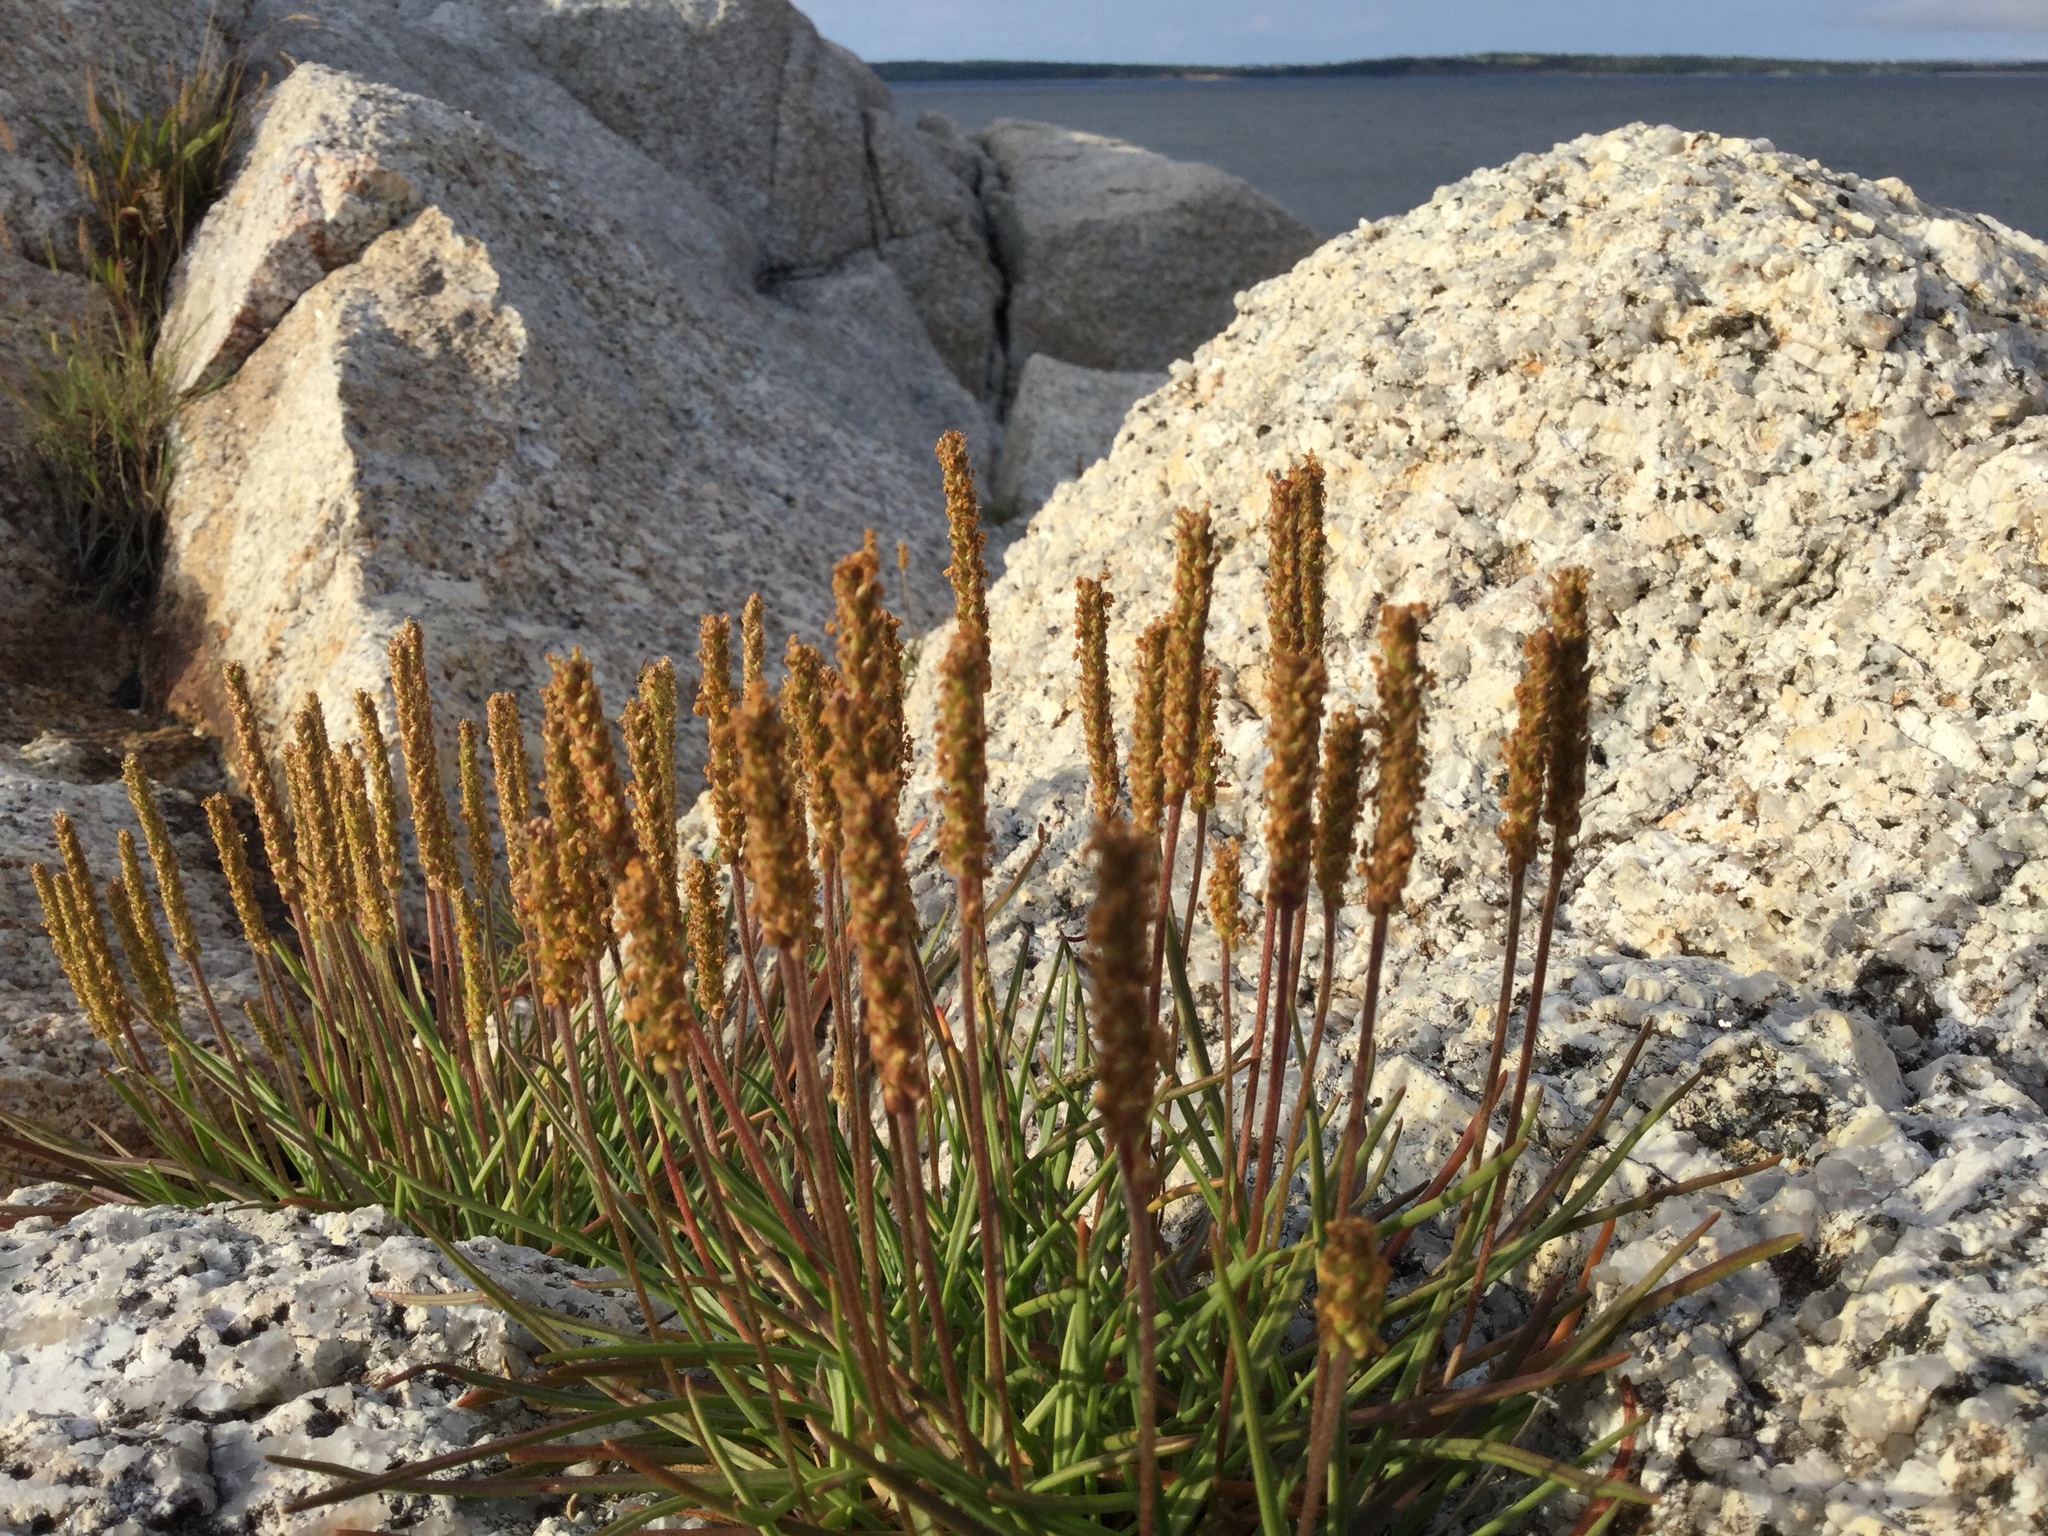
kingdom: Plantae
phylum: Tracheophyta
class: Magnoliopsida
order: Lamiales
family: Plantaginaceae
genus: Plantago
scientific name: Plantago maritima
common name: Sea plantain
